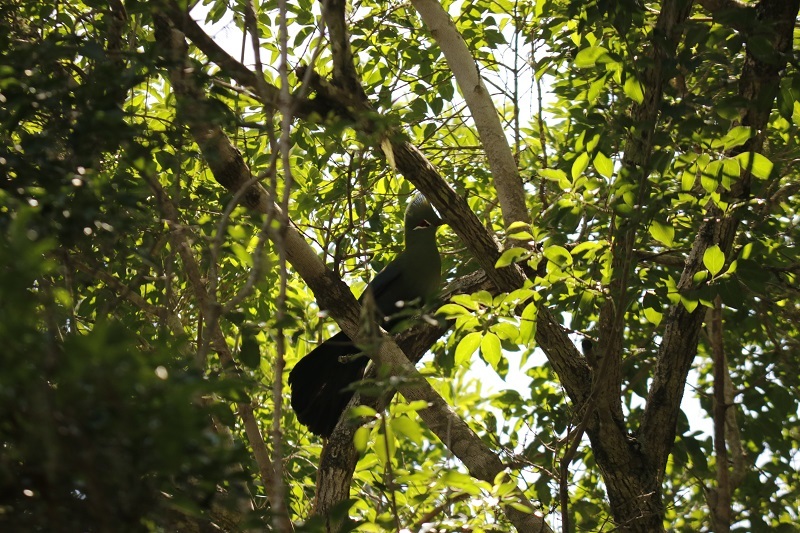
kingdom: Animalia
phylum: Chordata
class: Aves
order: Musophagiformes
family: Musophagidae
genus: Tauraco
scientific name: Tauraco corythaix
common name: Knysna turaco
